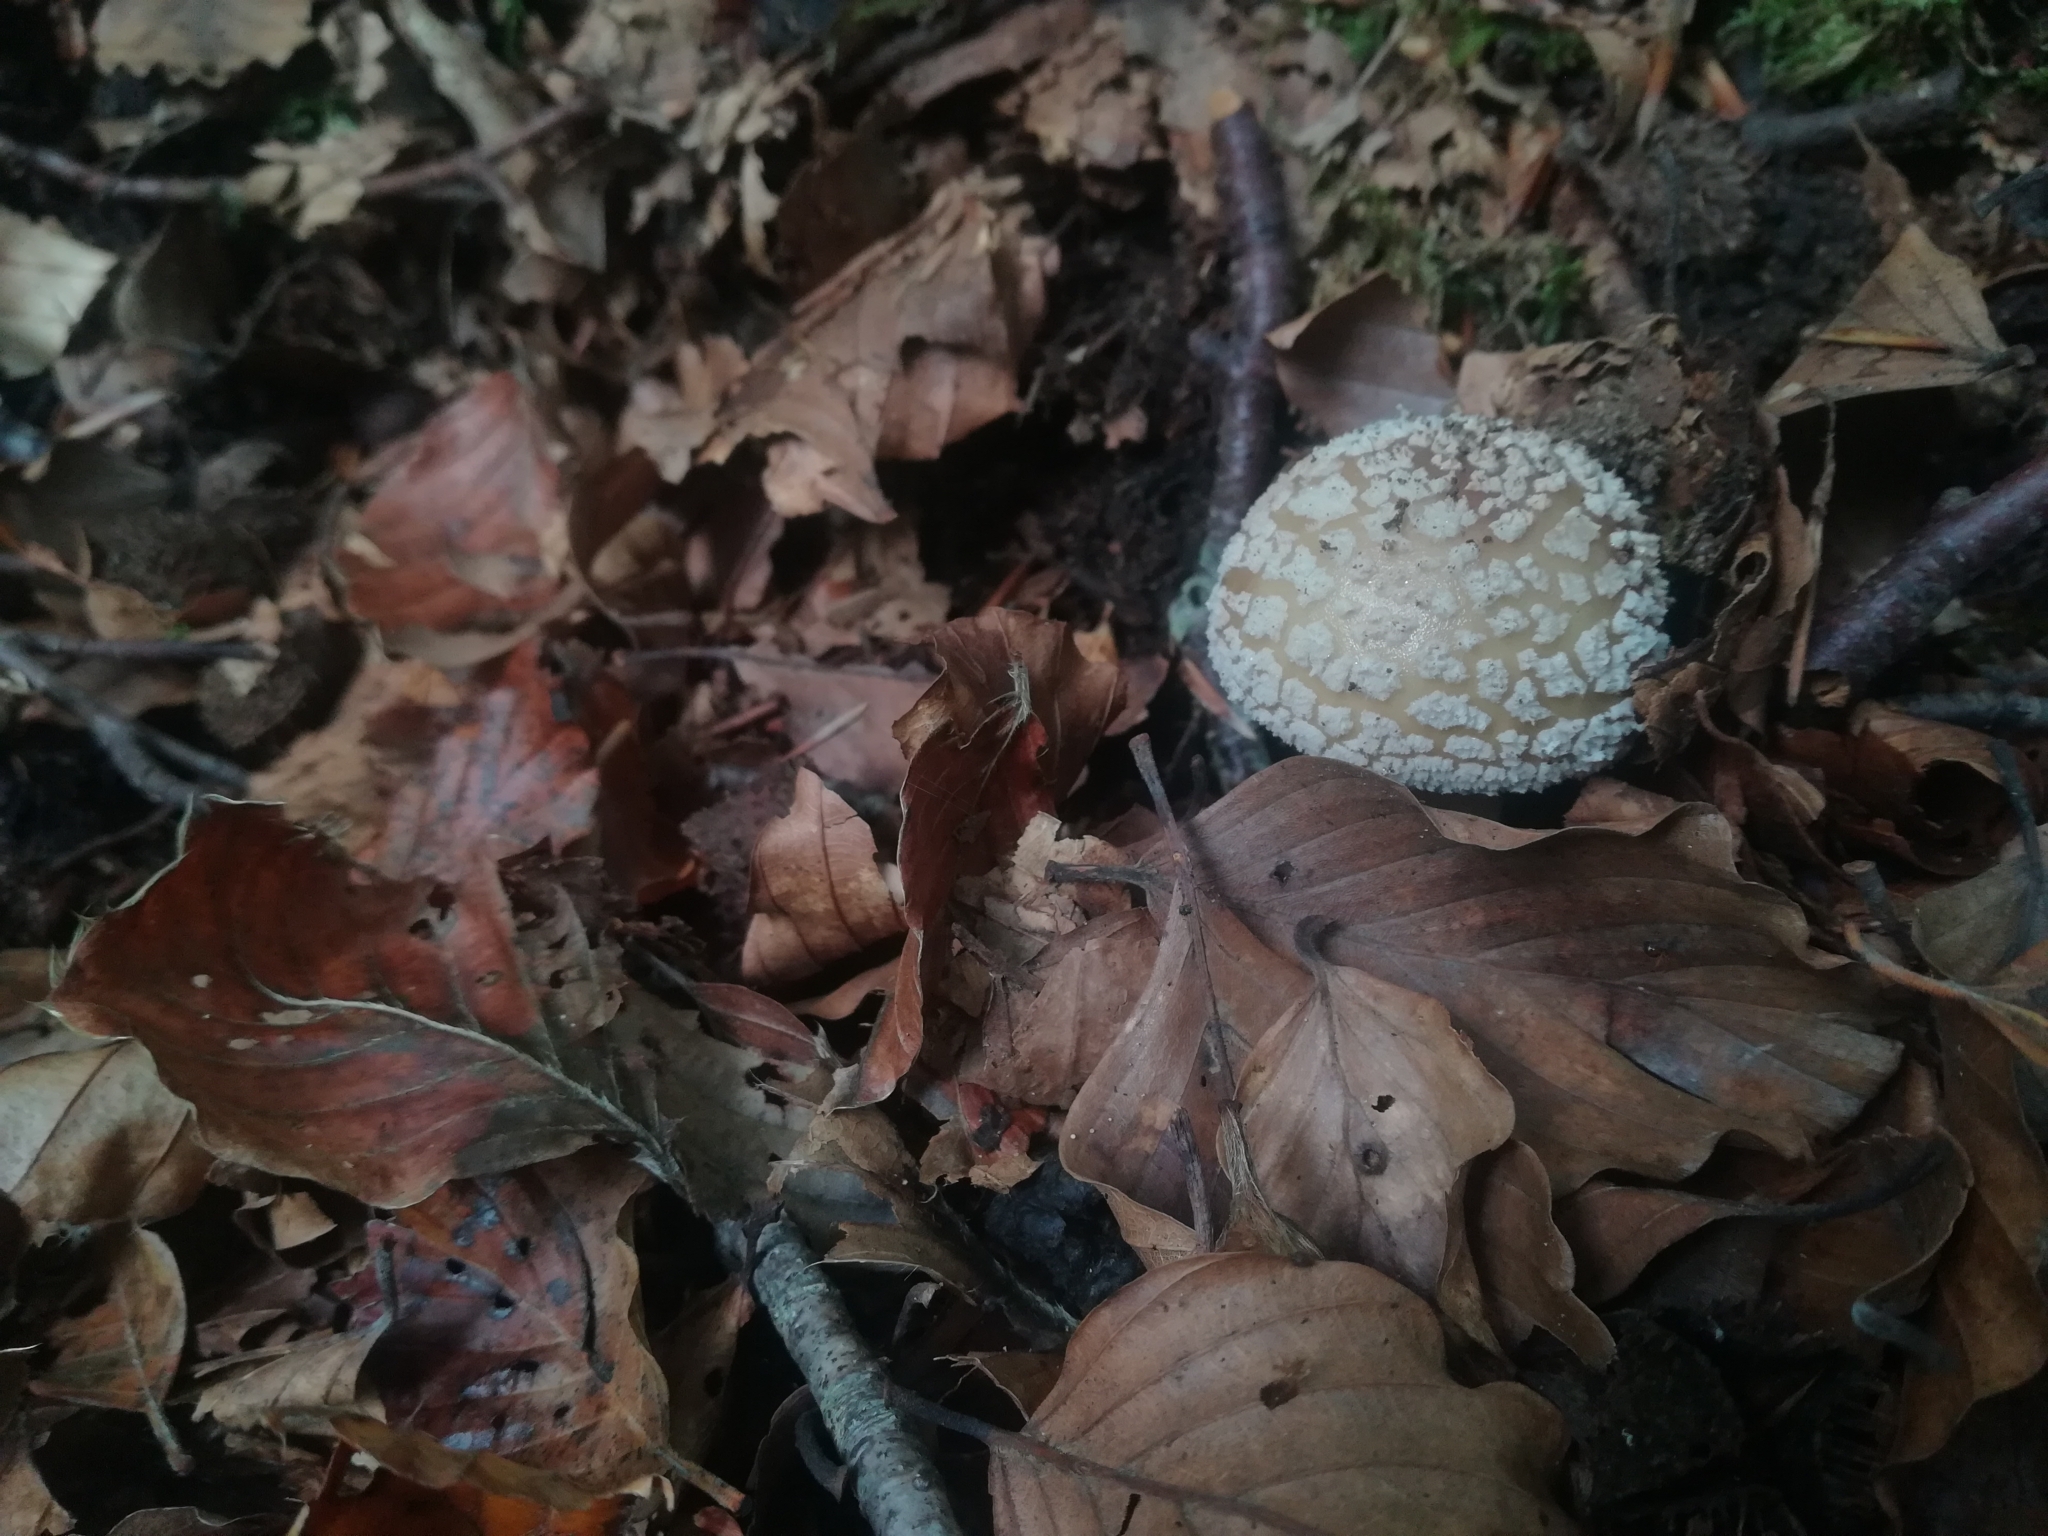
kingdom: Fungi
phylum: Basidiomycota
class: Agaricomycetes
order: Agaricales
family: Amanitaceae
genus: Amanita
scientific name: Amanita pantherina
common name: Panthercap
